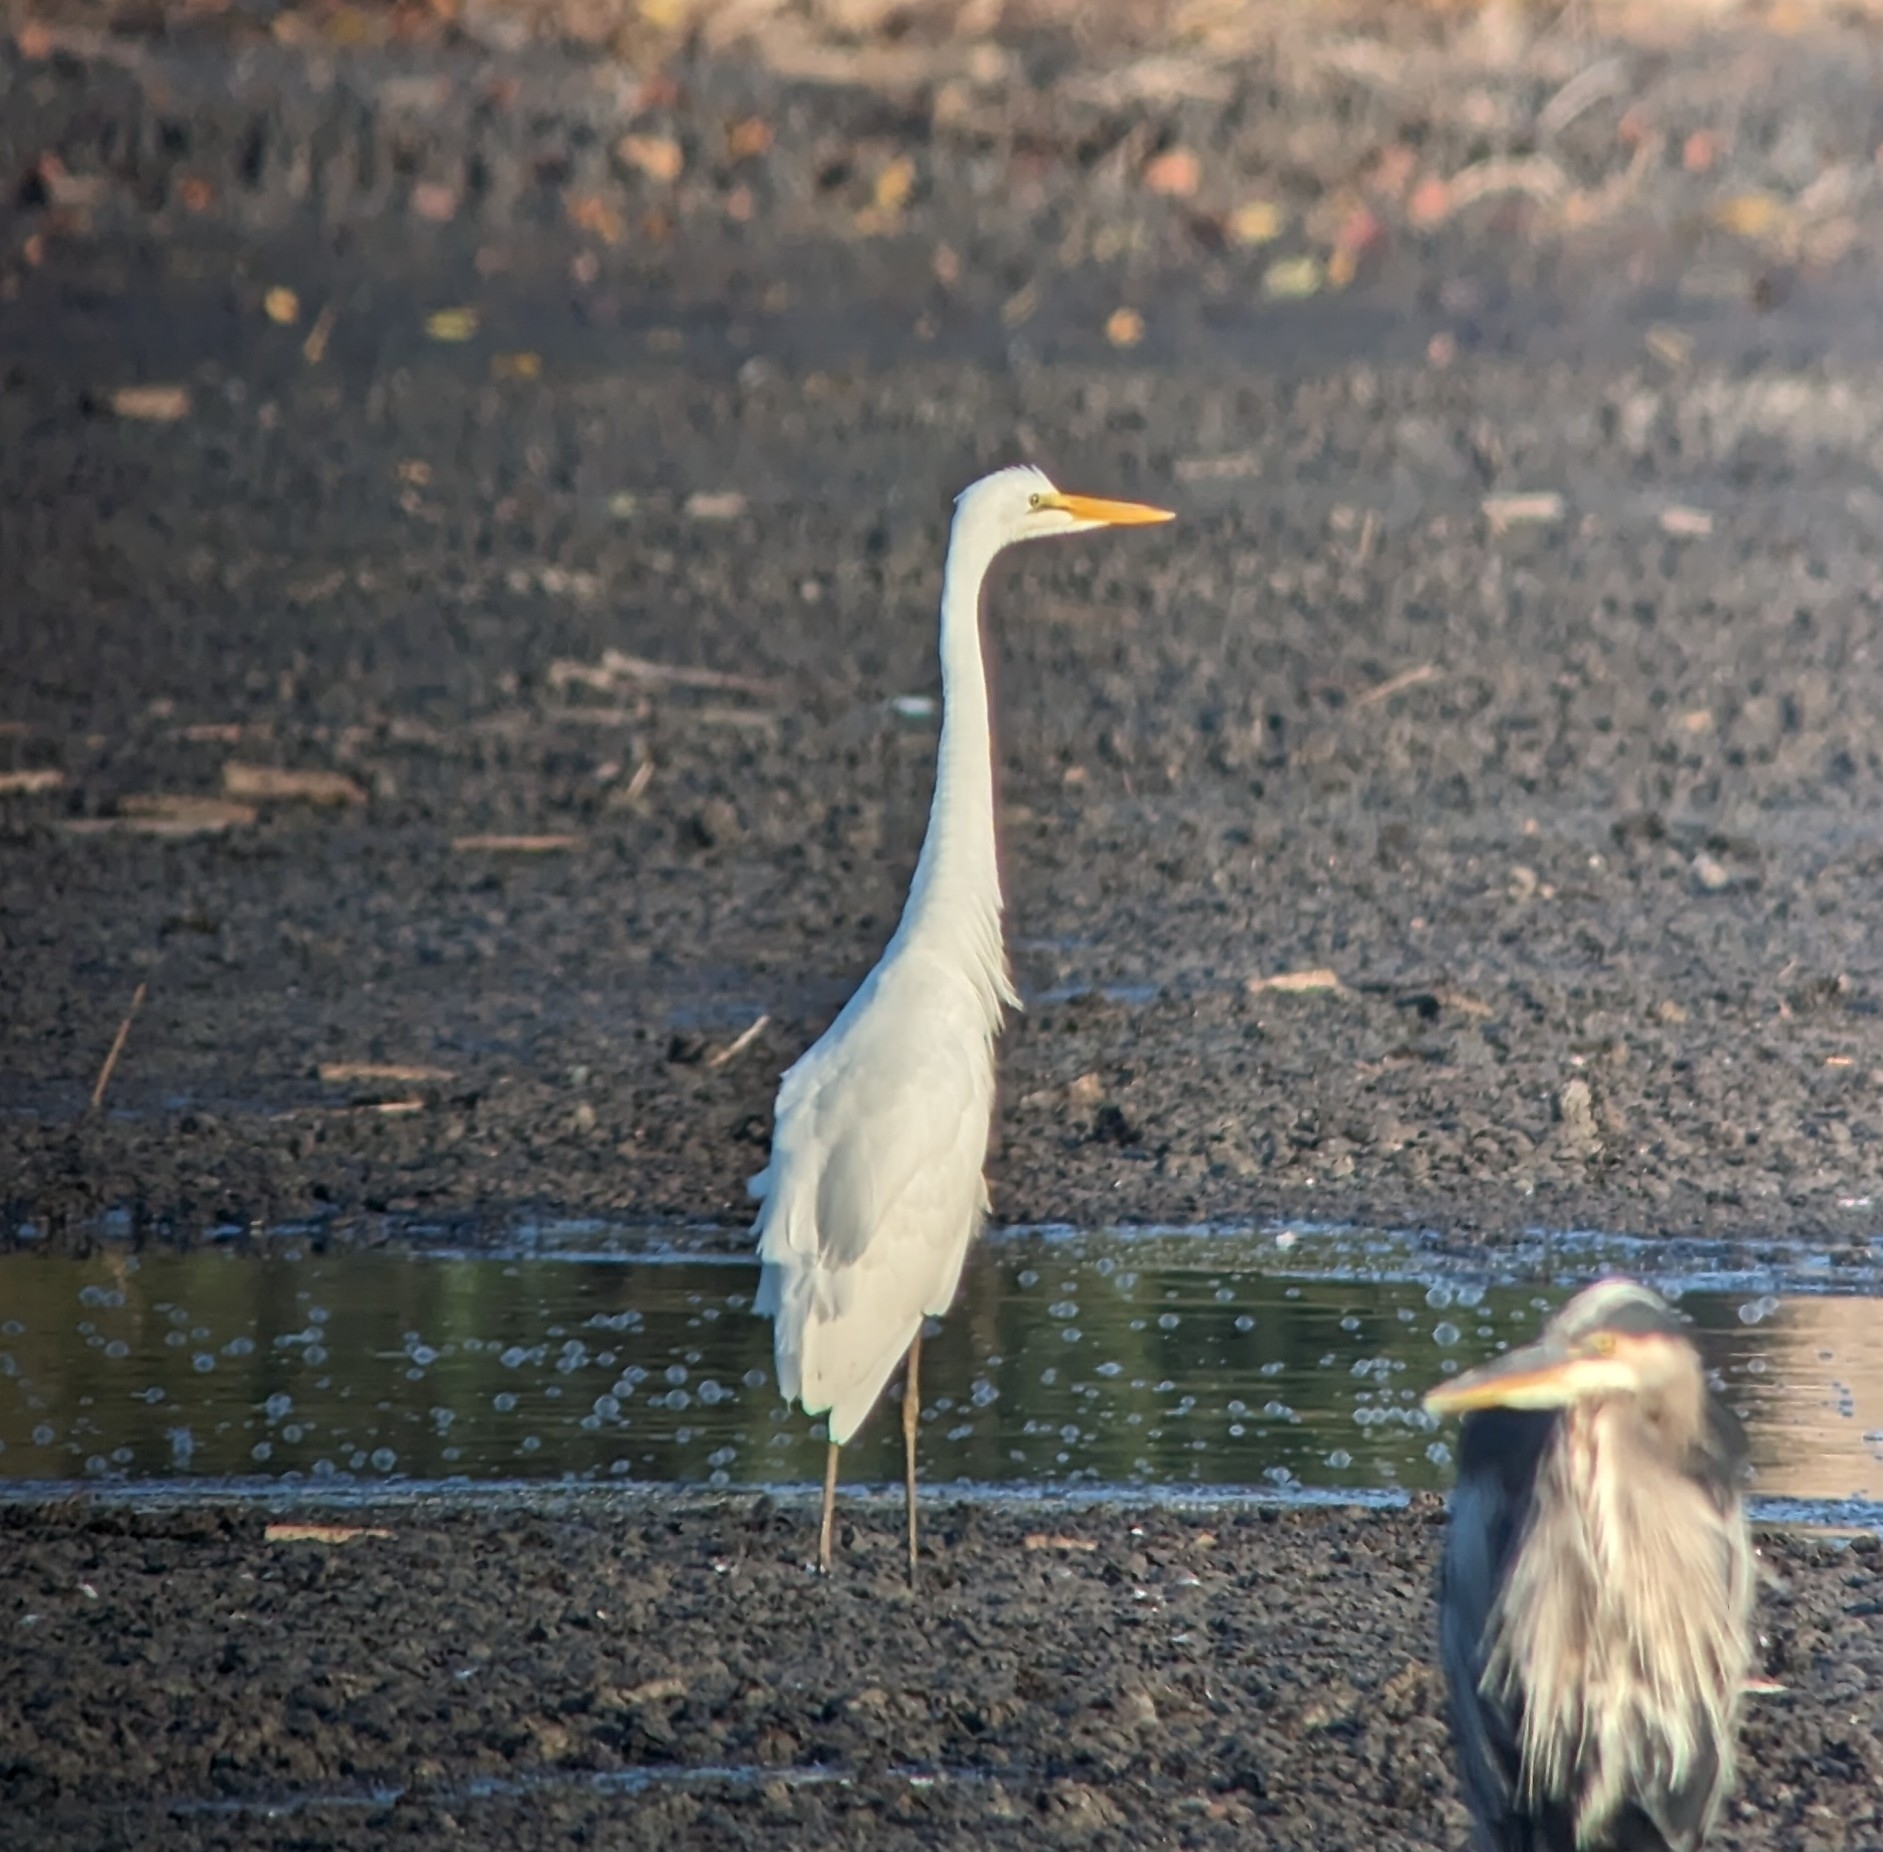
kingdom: Animalia
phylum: Chordata
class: Aves
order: Pelecaniformes
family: Ardeidae
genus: Ardea
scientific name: Ardea alba
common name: Great egret
